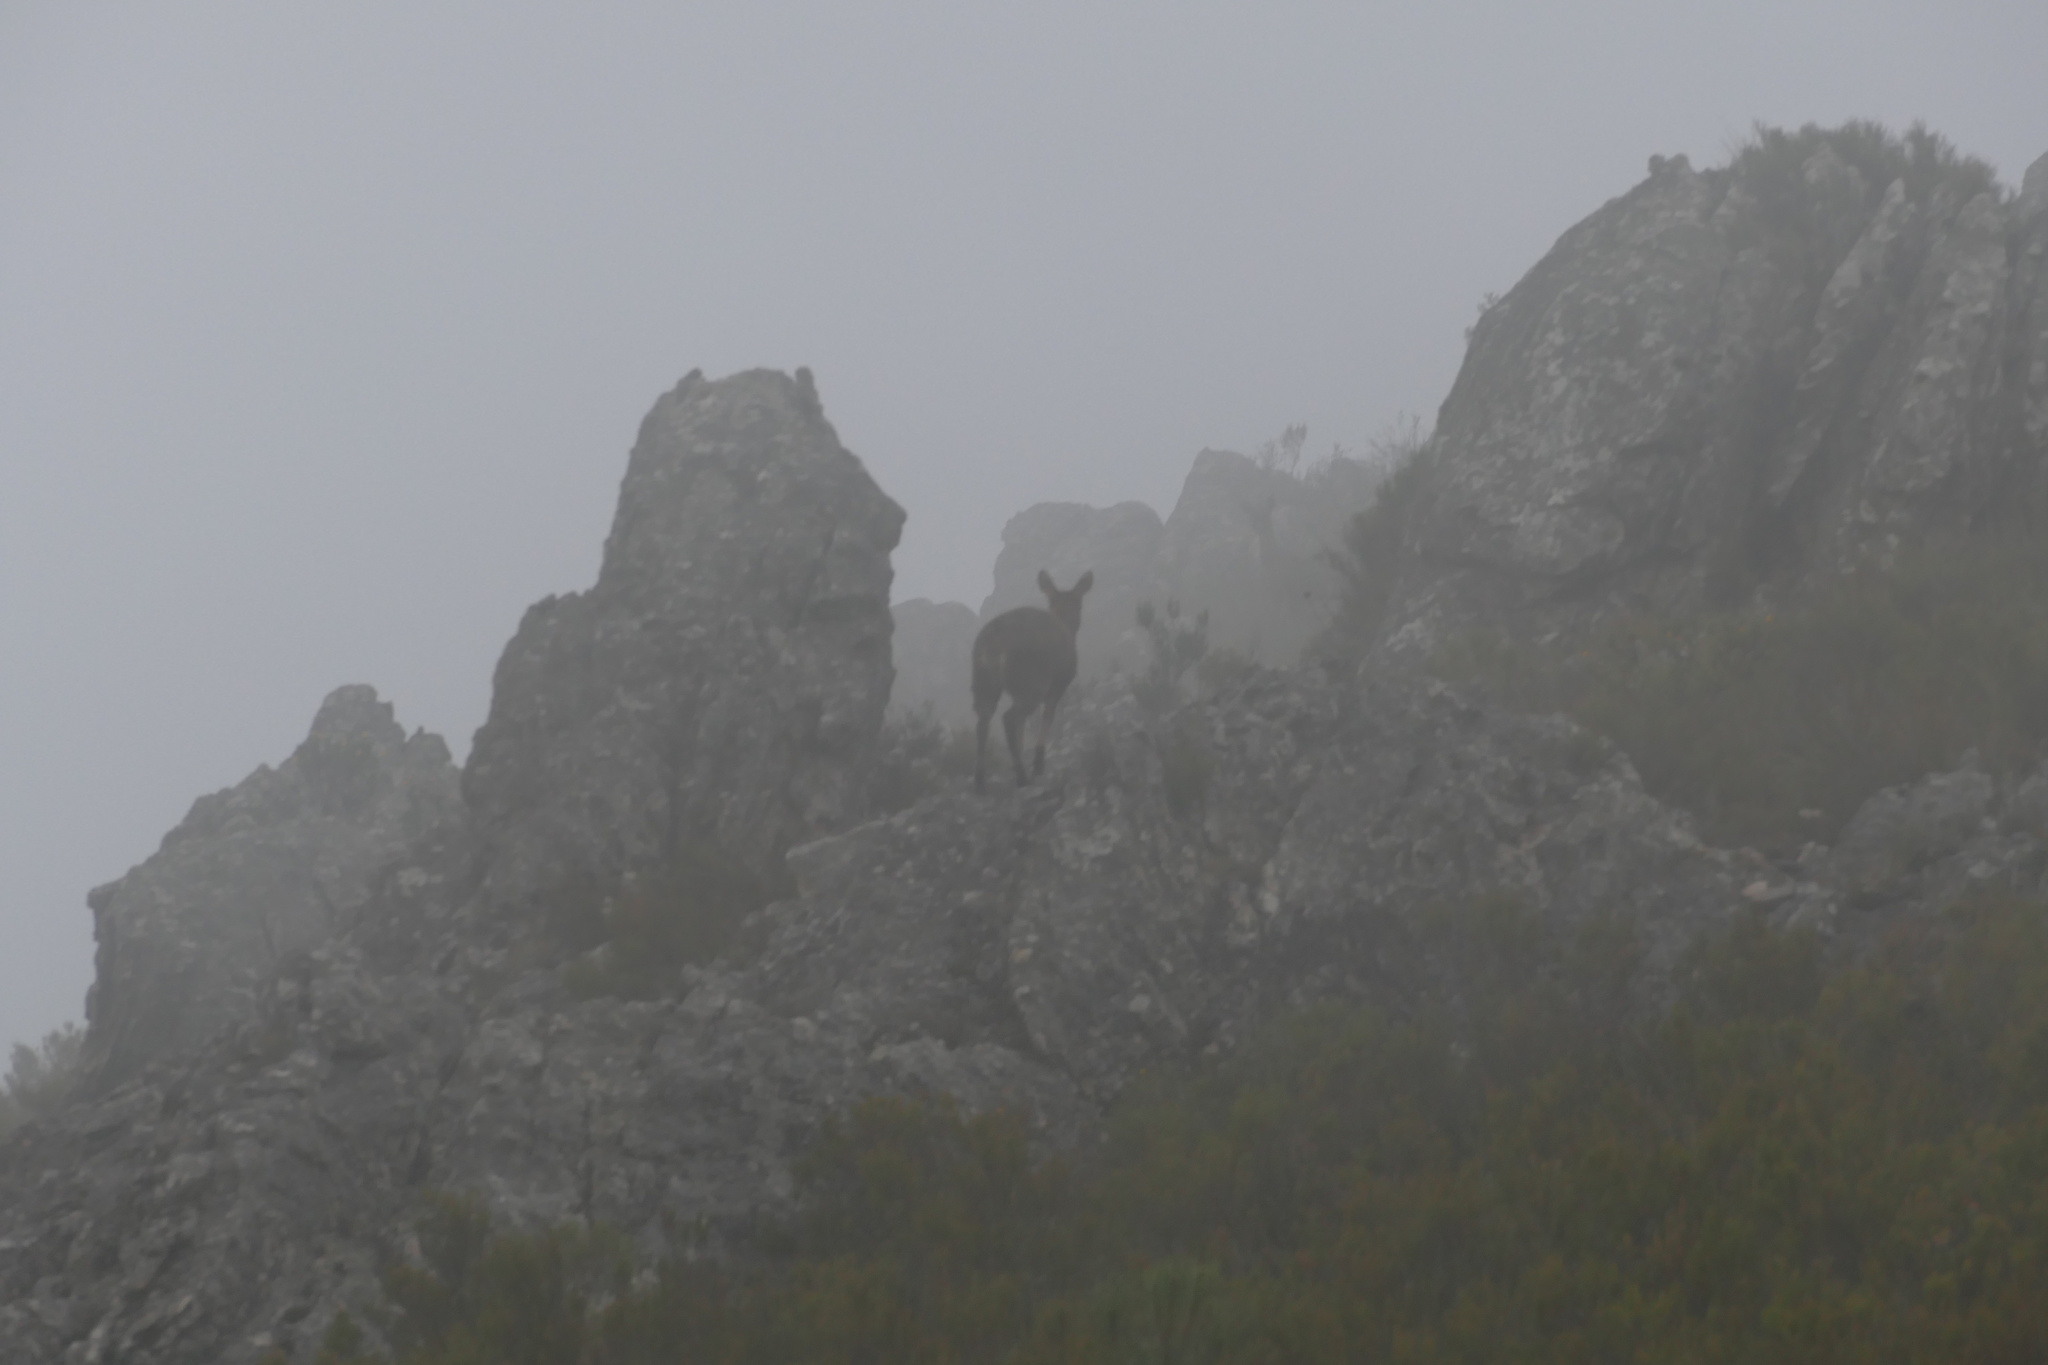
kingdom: Animalia
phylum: Chordata
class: Mammalia
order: Artiodactyla
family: Bovidae
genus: Oreotragus
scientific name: Oreotragus oreotragus
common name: Klipspringer
